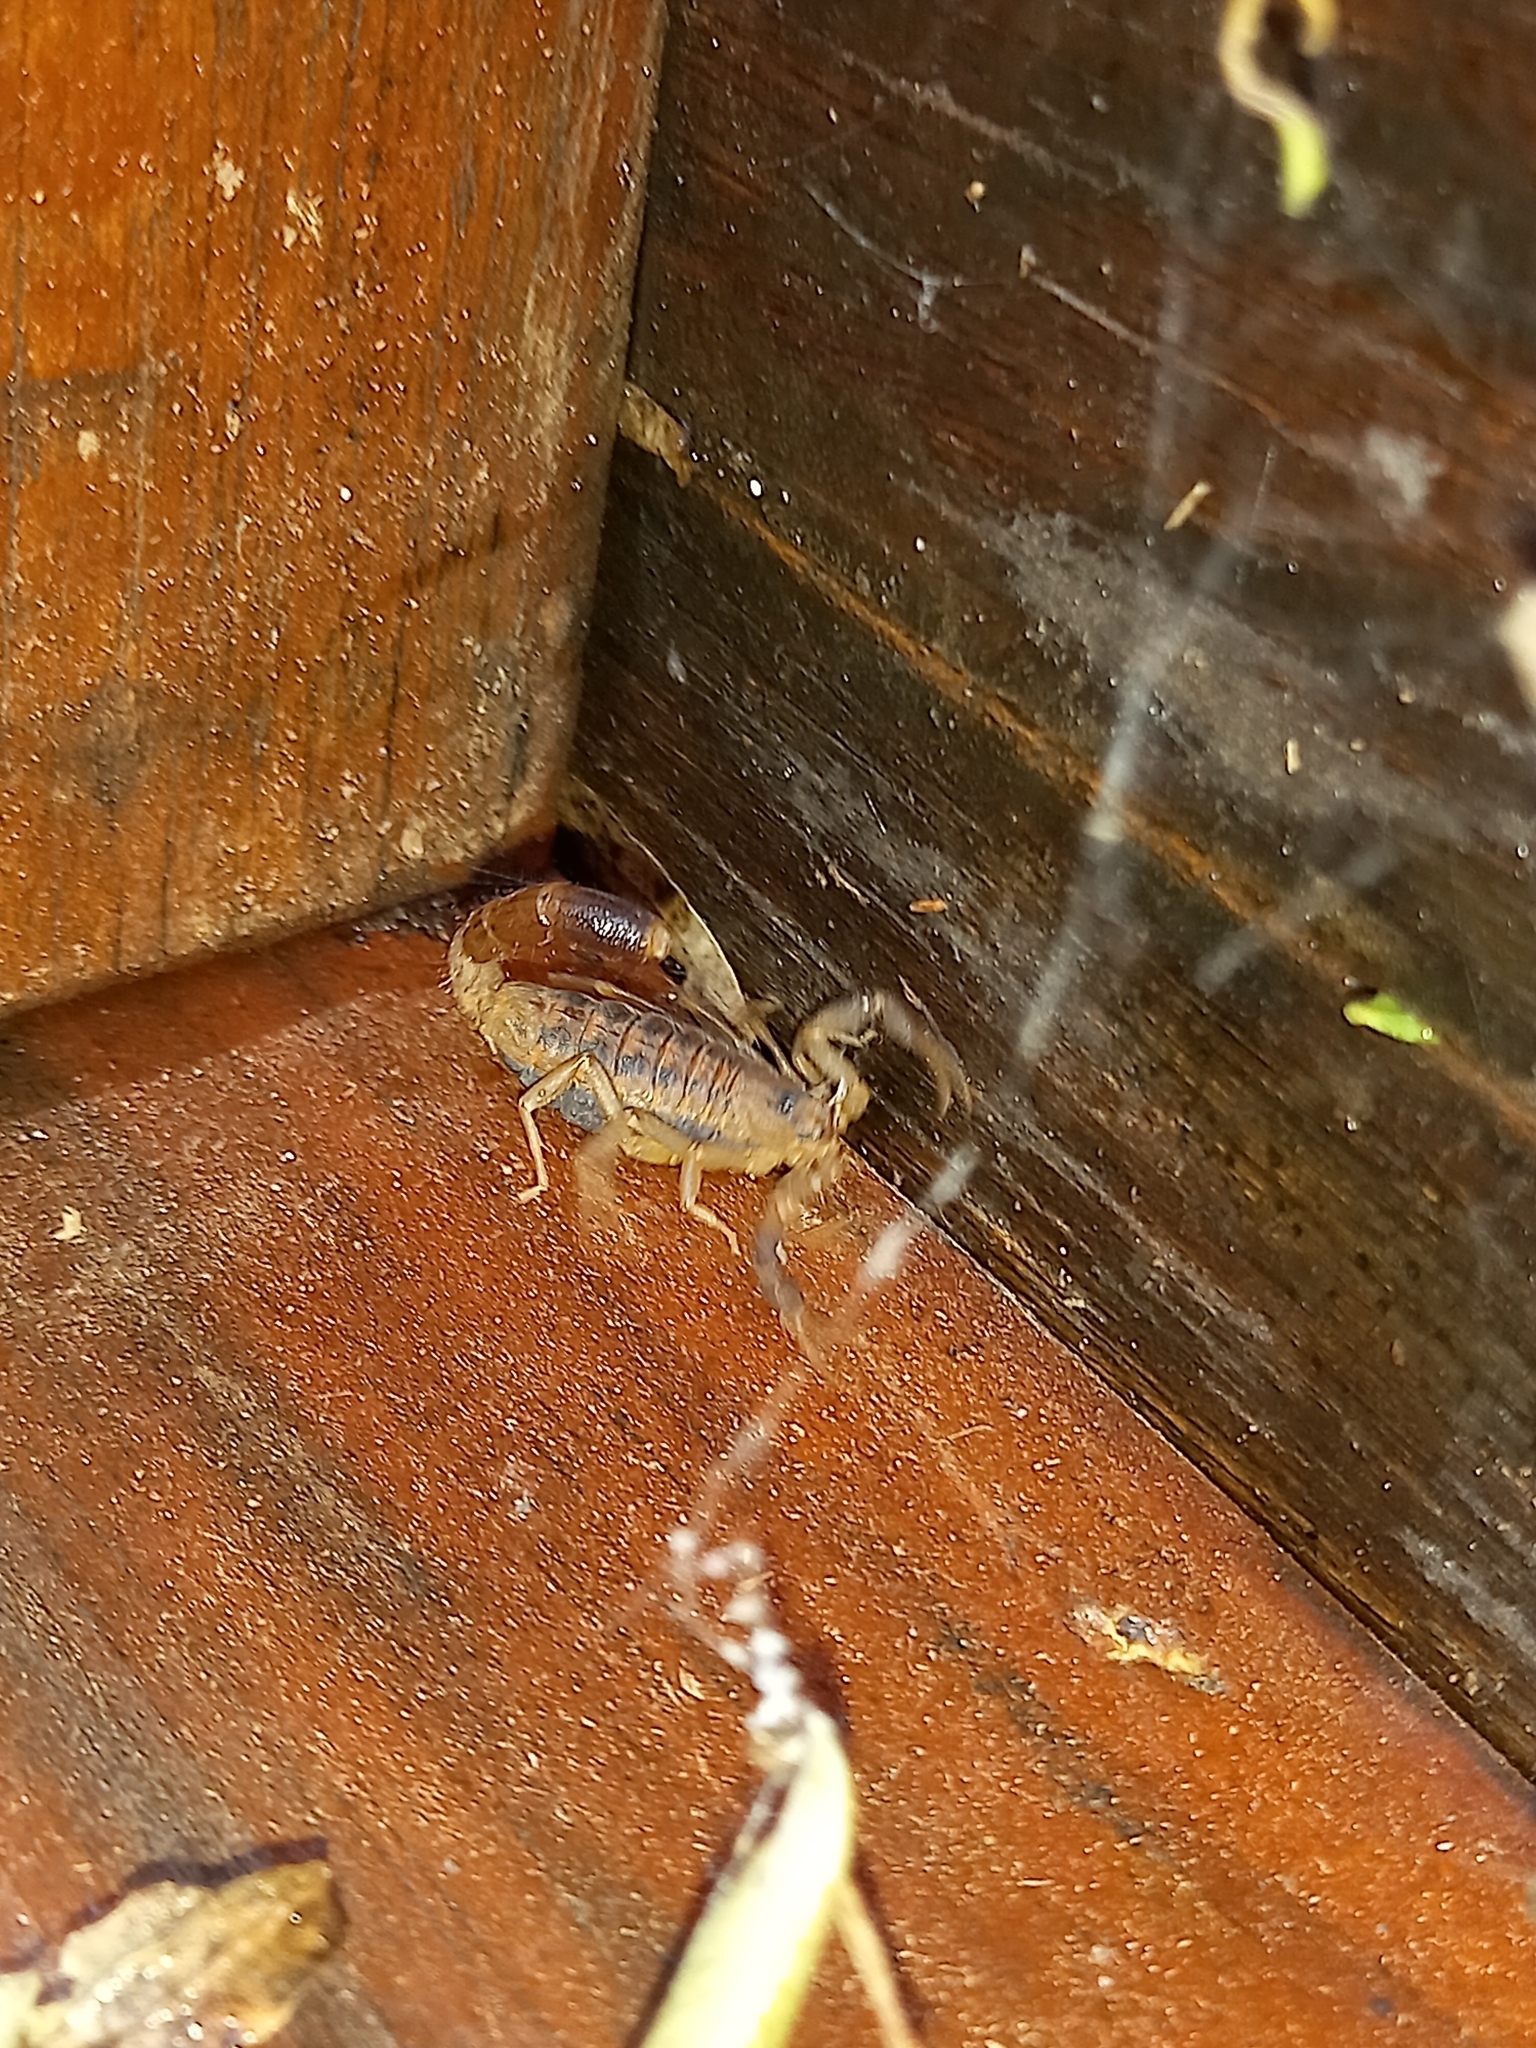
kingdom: Animalia
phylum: Arthropoda
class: Arachnida
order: Scorpiones
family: Buthidae
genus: Uroplectes
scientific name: Uroplectes triangulifer
